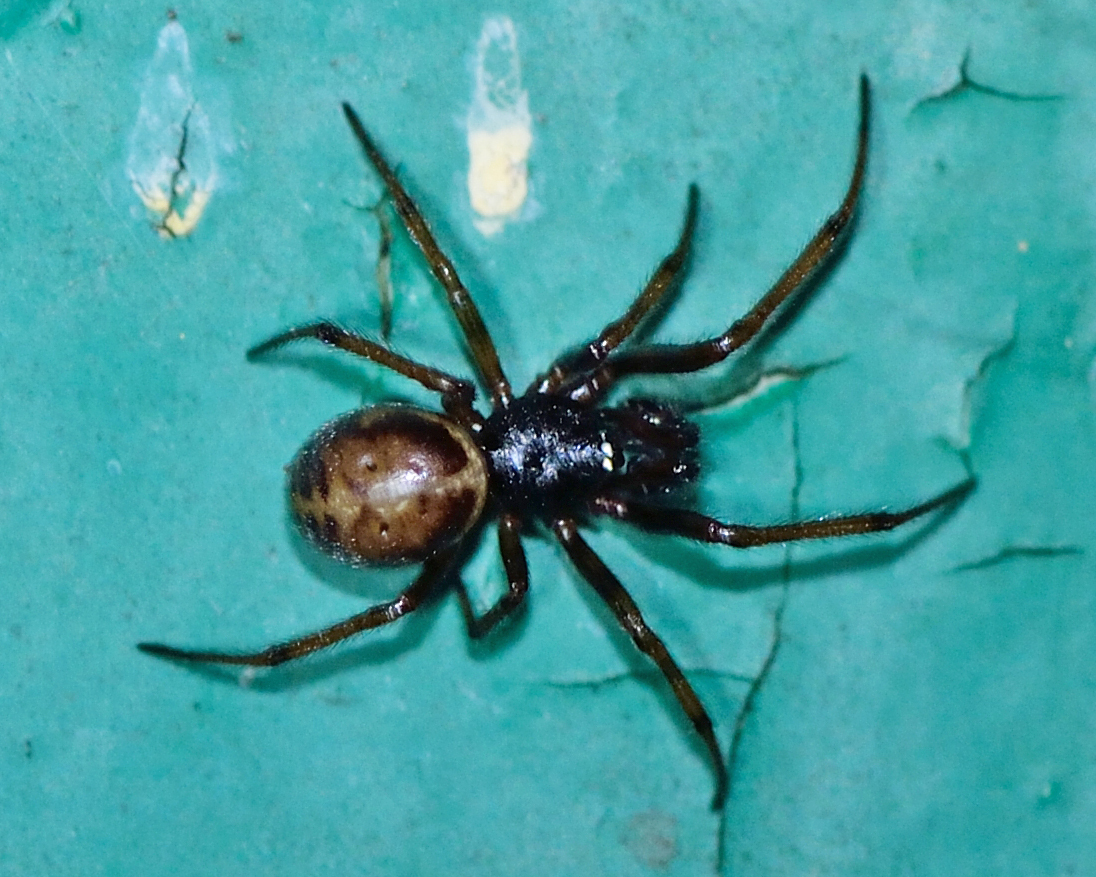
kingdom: Animalia
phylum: Arthropoda
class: Arachnida
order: Araneae
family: Theridiidae
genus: Steatoda
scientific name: Steatoda bipunctata
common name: False widow
